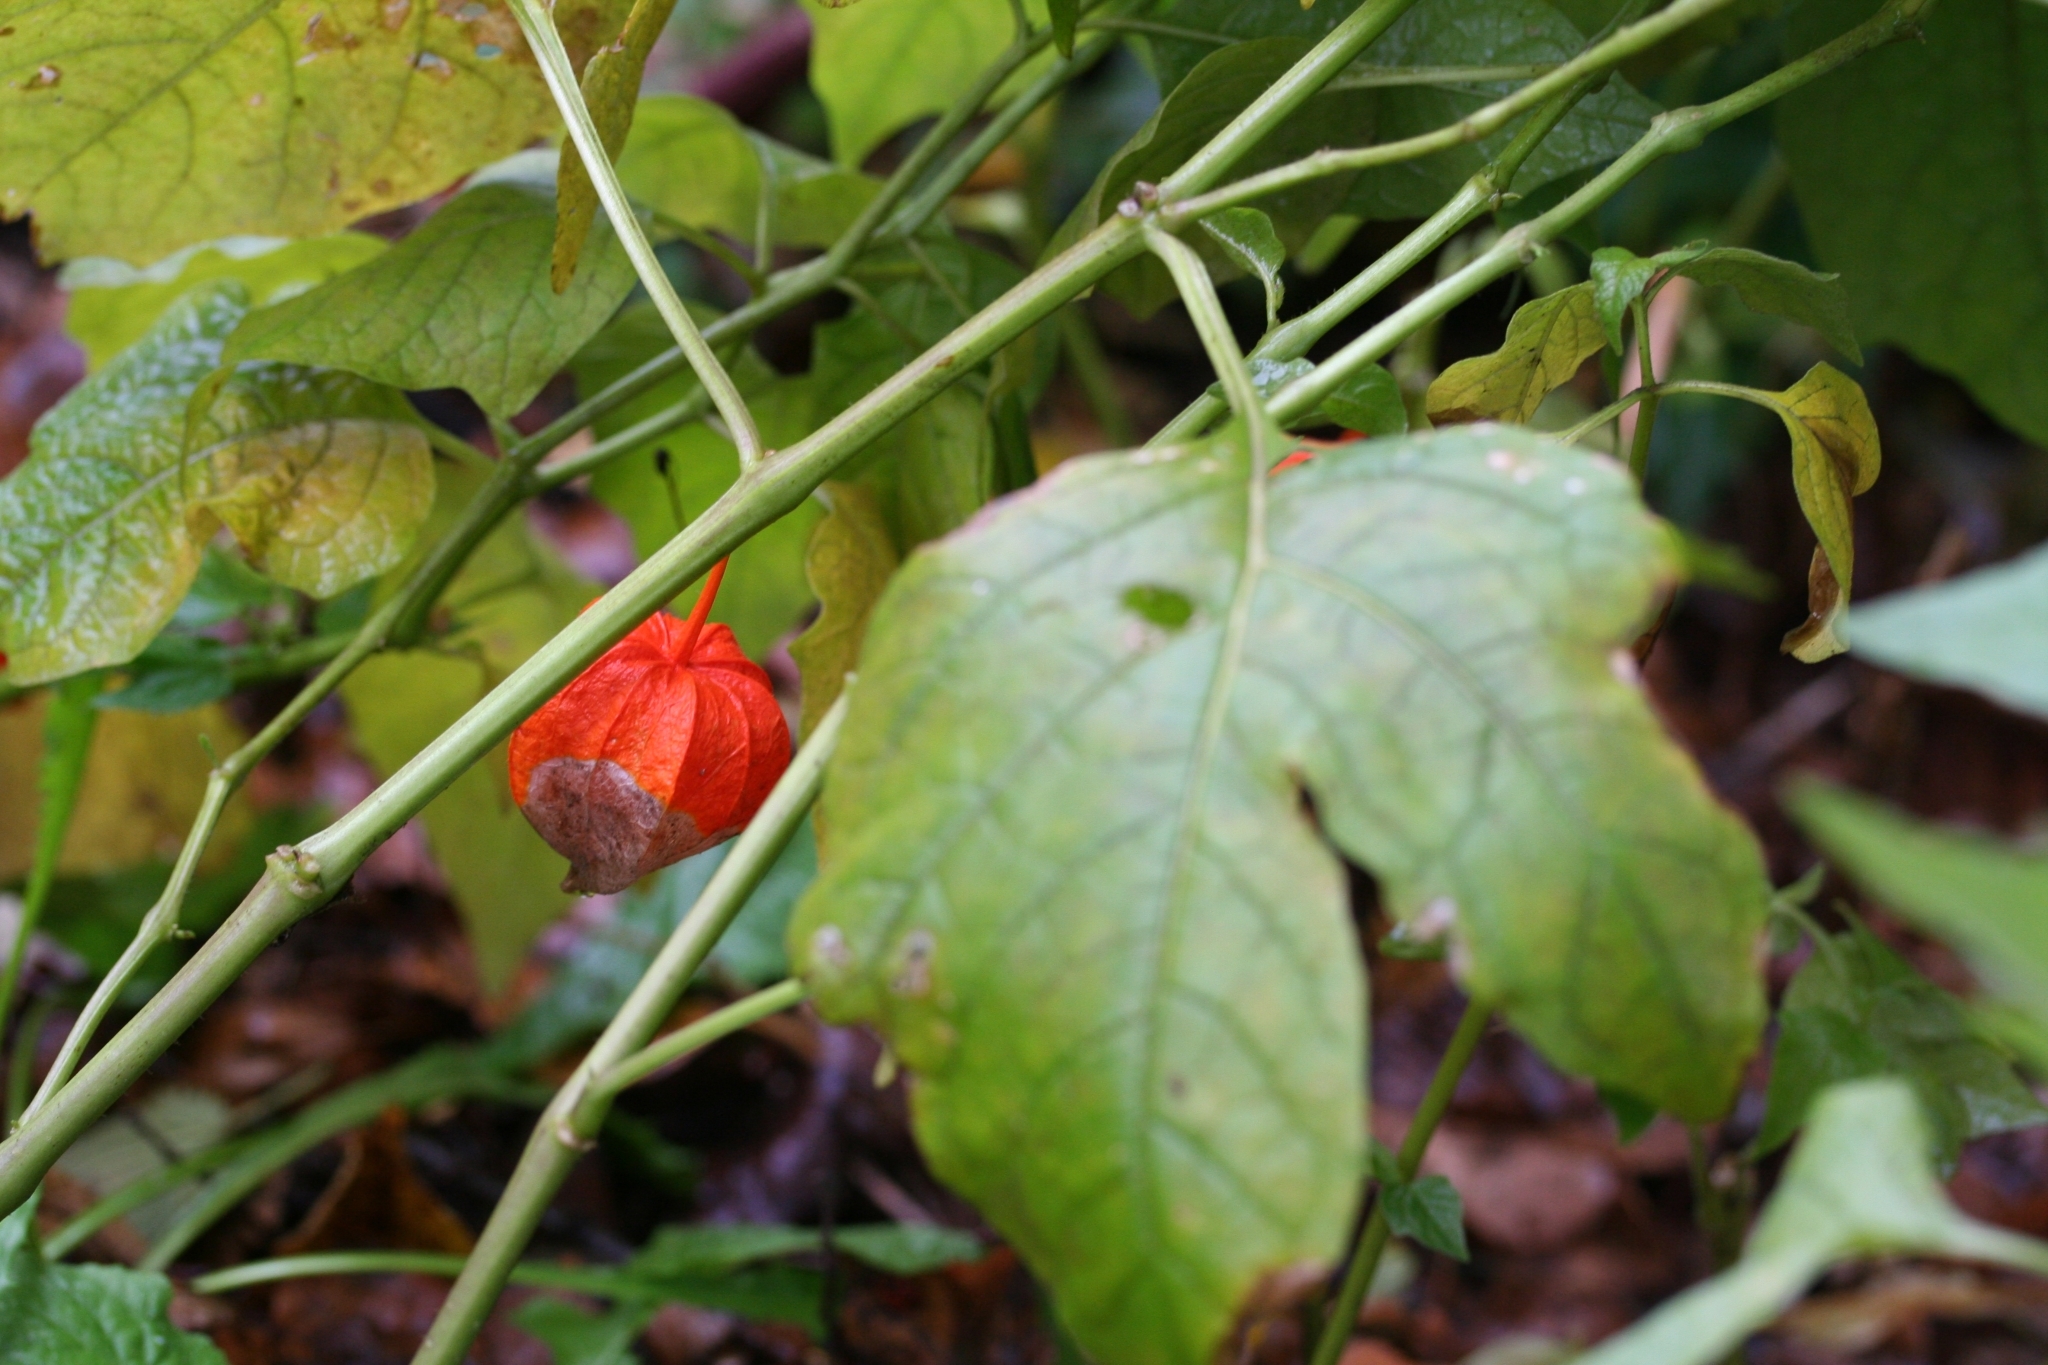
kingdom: Plantae
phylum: Tracheophyta
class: Magnoliopsida
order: Solanales
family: Solanaceae
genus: Alkekengi
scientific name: Alkekengi officinarum
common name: Japanese-lantern
